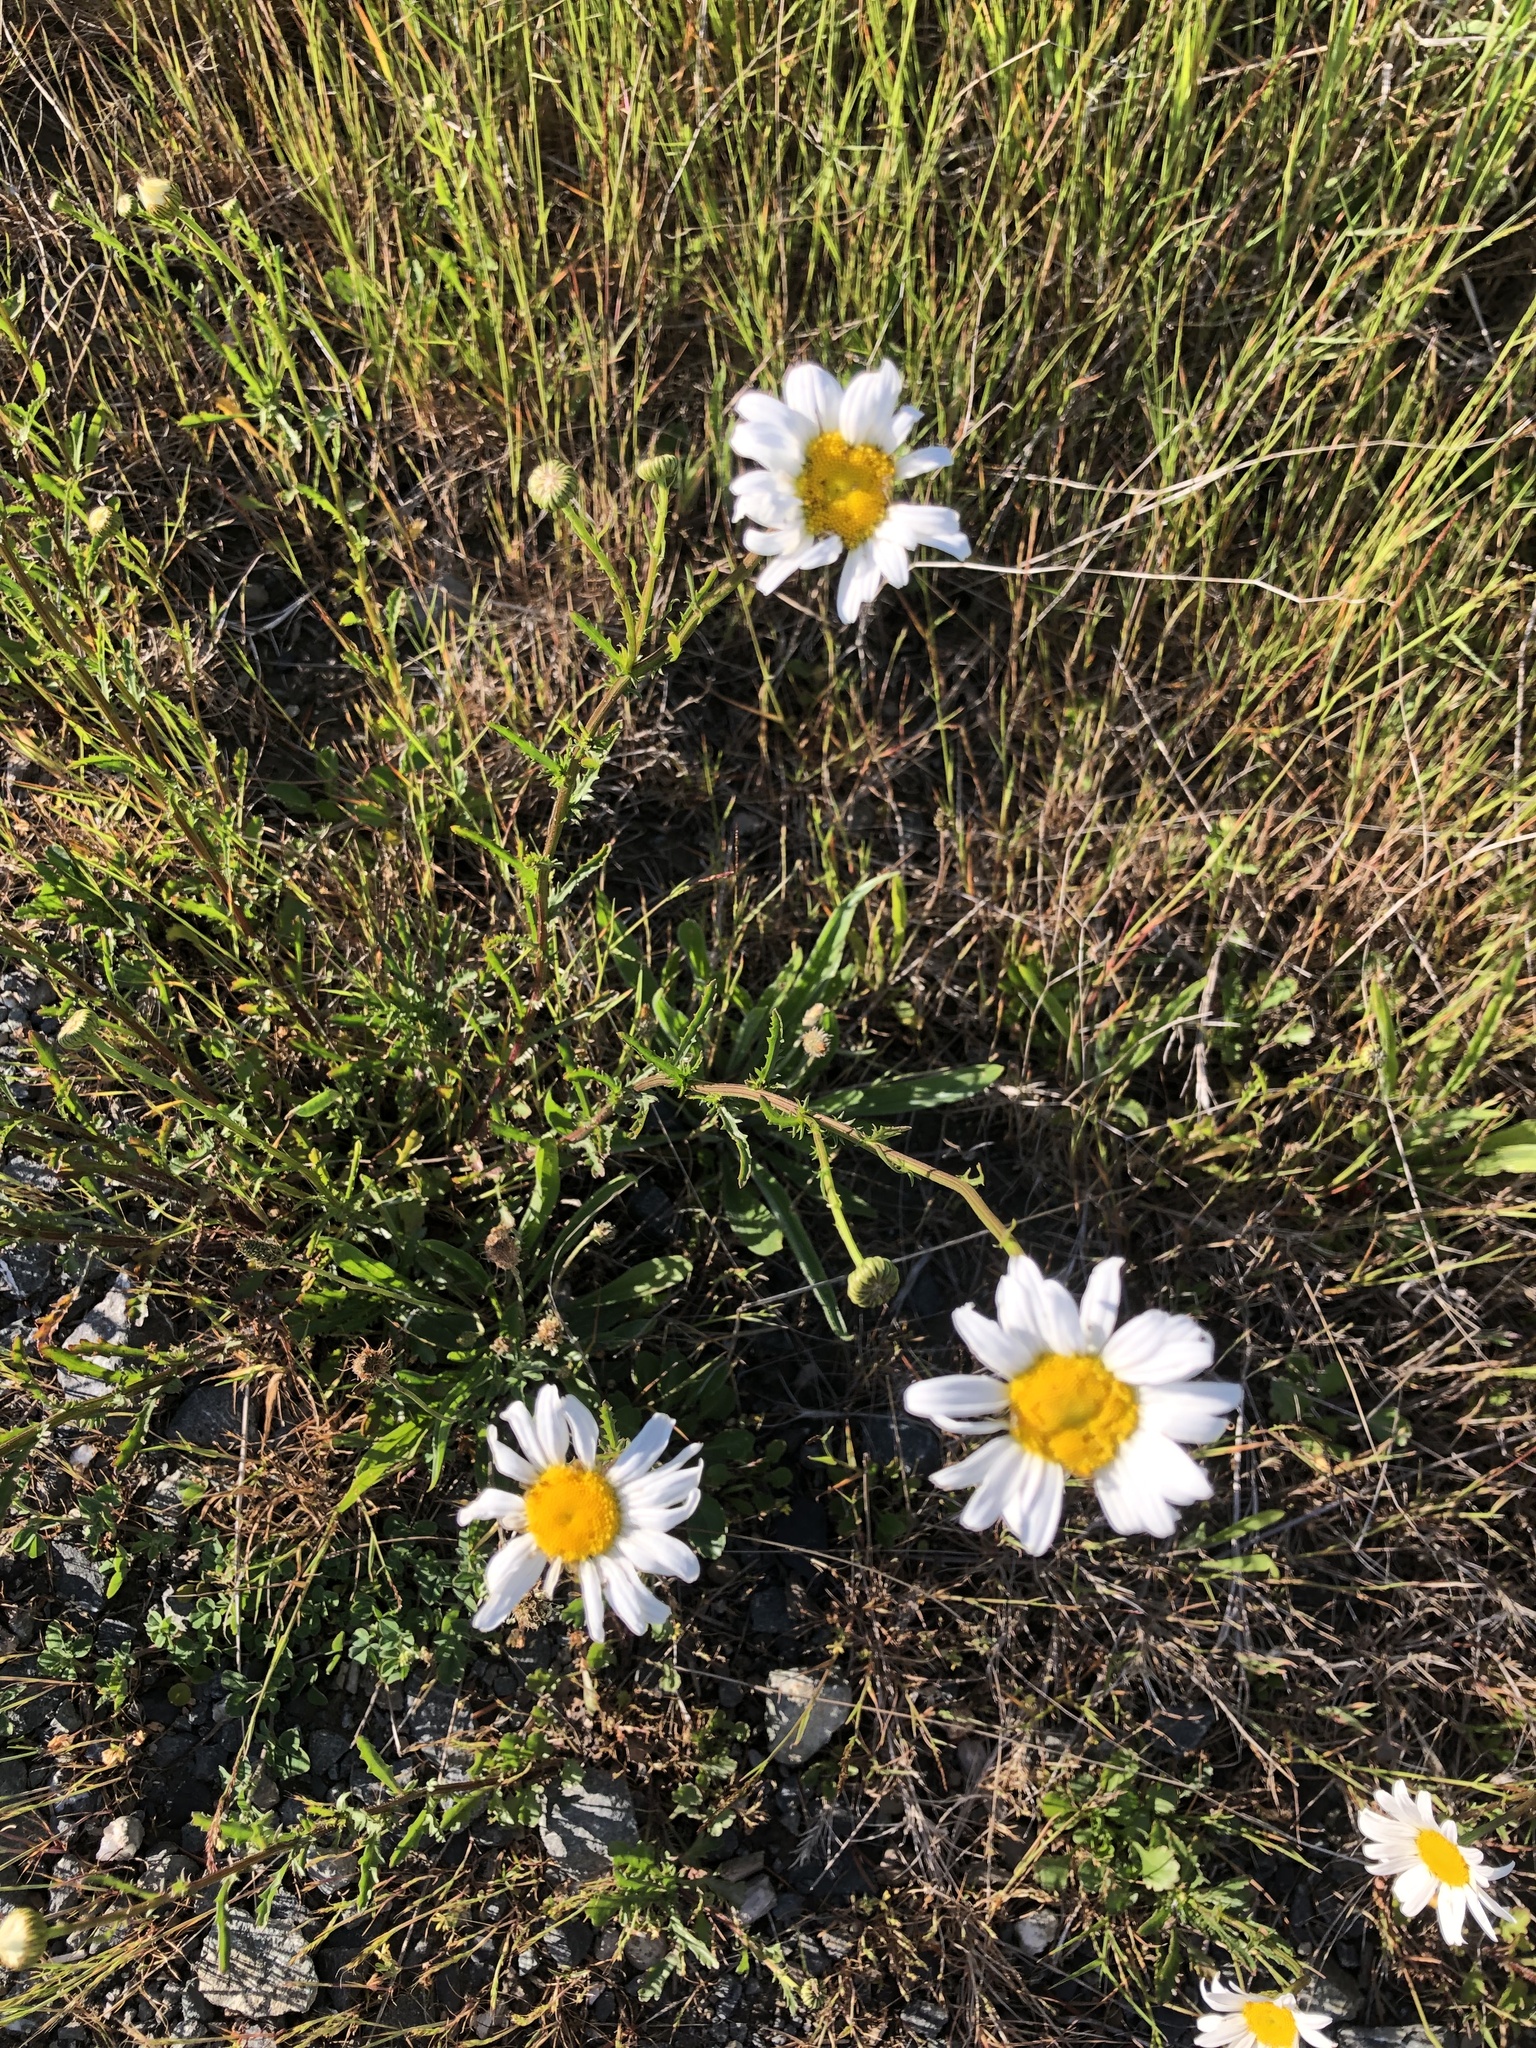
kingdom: Plantae
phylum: Tracheophyta
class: Magnoliopsida
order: Asterales
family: Asteraceae
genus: Leucanthemum
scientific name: Leucanthemum vulgare
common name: Oxeye daisy
